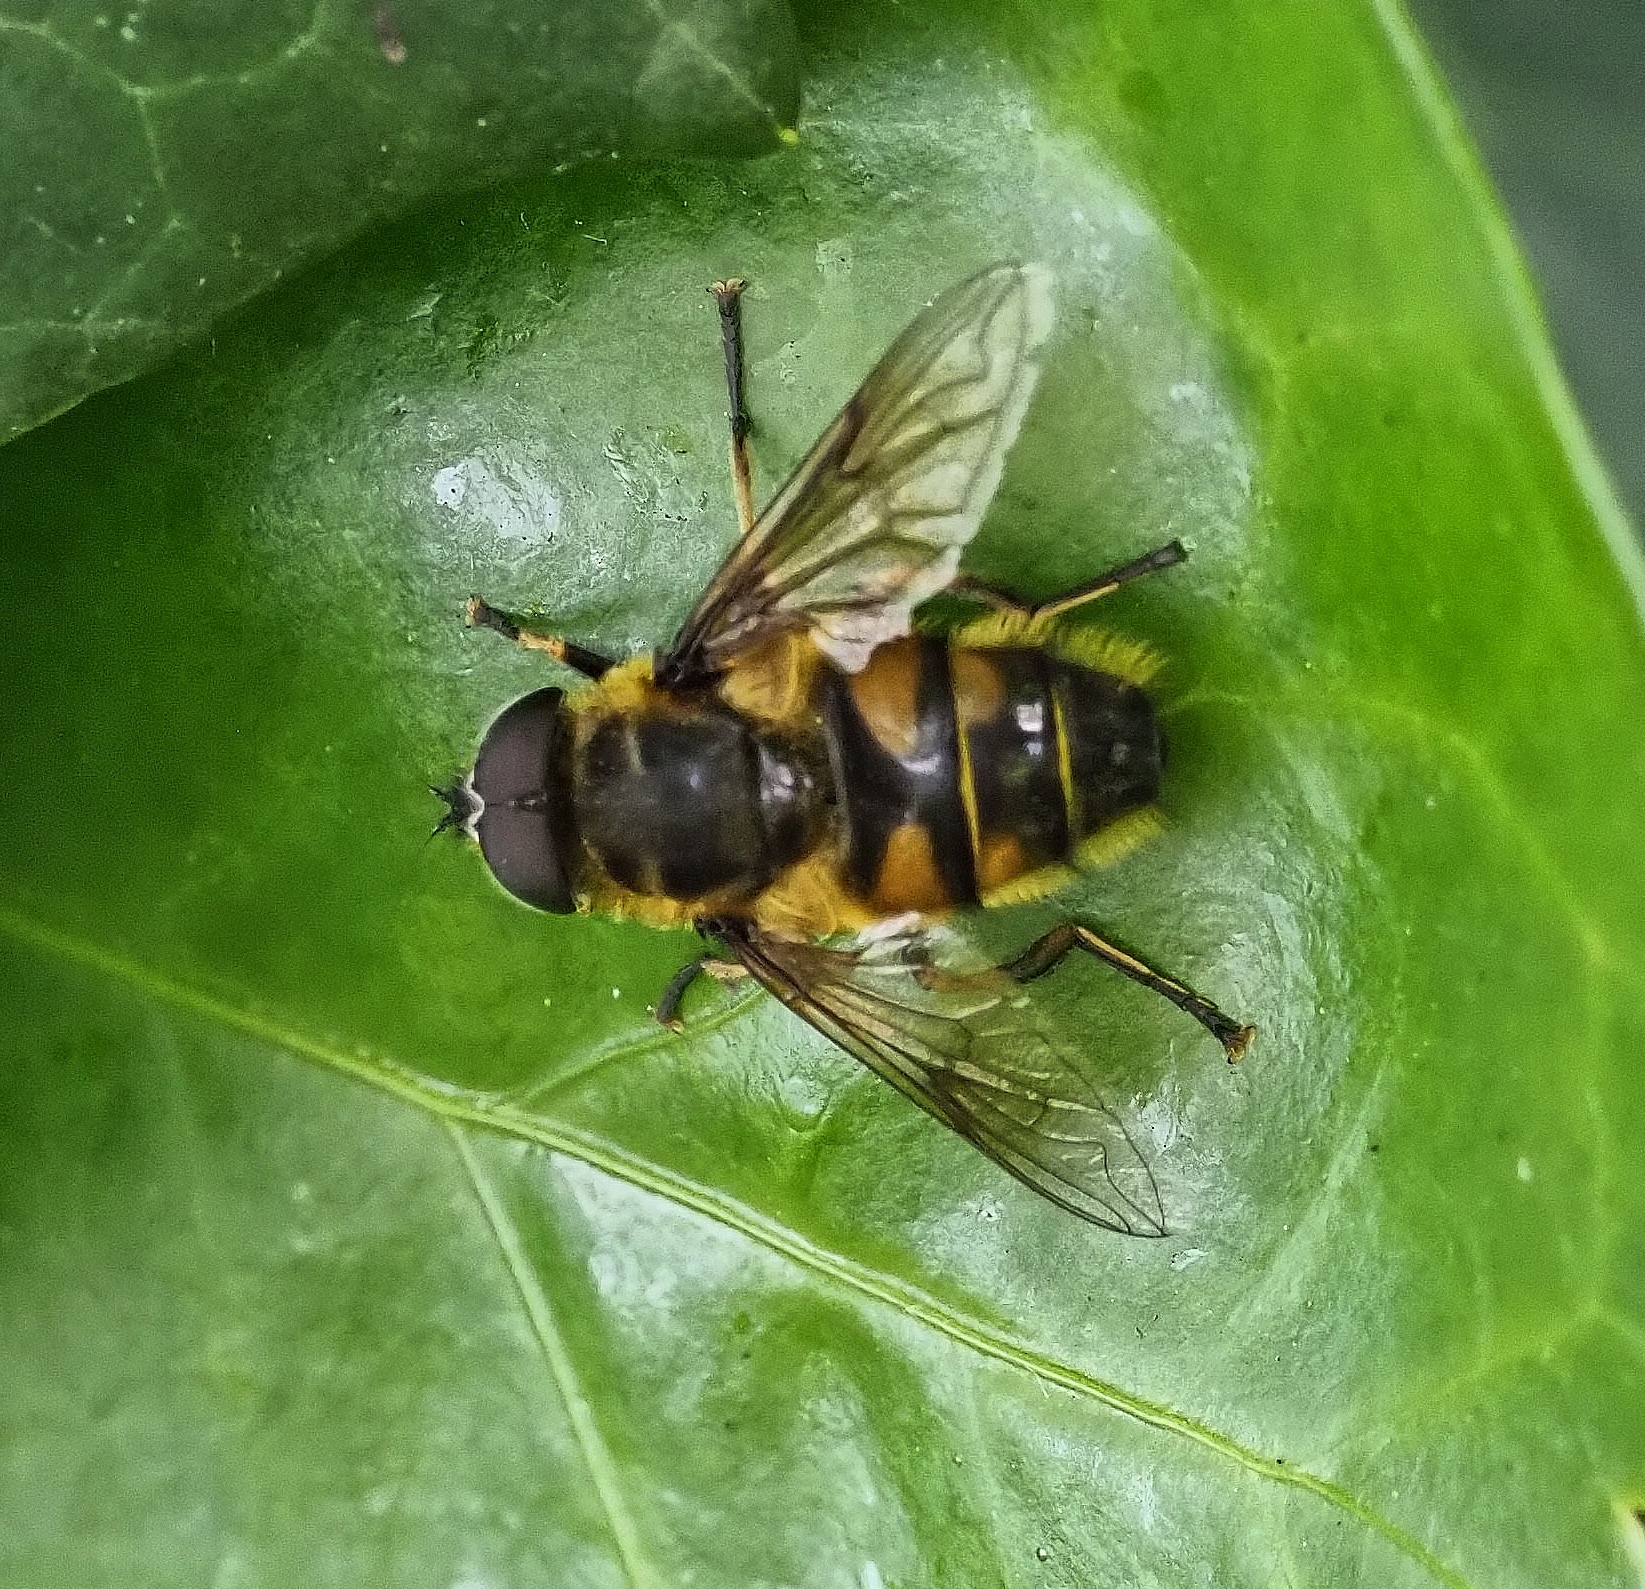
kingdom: Animalia
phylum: Arthropoda
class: Insecta
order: Diptera
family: Syrphidae
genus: Myathropa
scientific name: Myathropa florea
